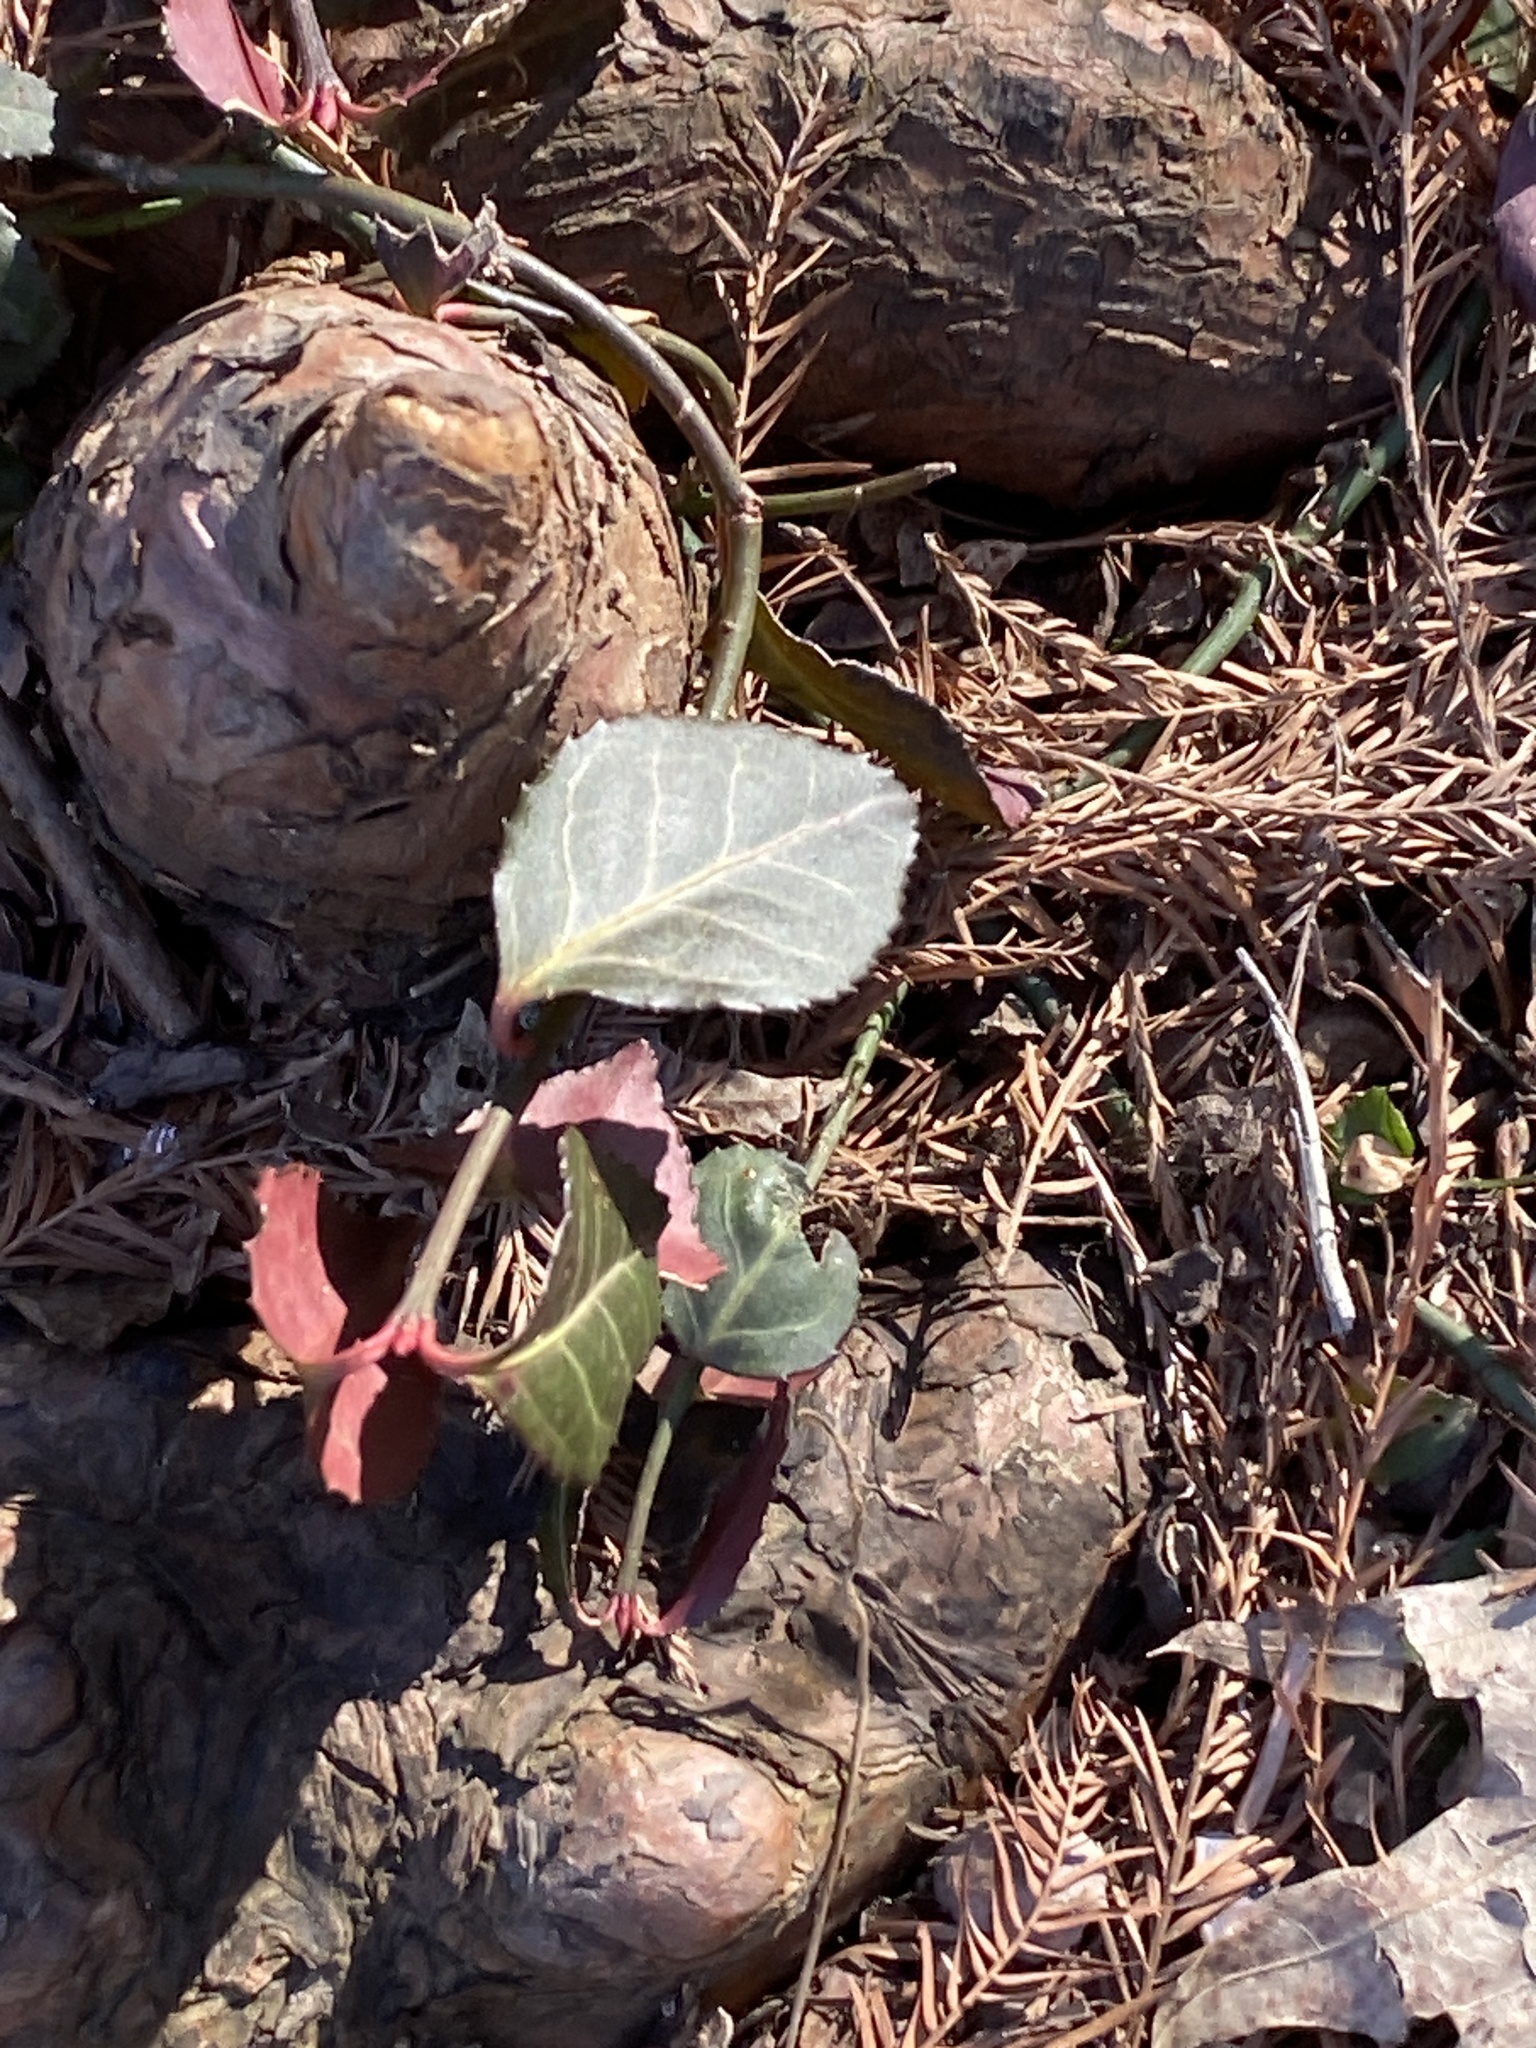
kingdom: Plantae
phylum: Tracheophyta
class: Magnoliopsida
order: Celastrales
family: Celastraceae
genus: Euonymus
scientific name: Euonymus fortunei
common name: Climbing euonymus
